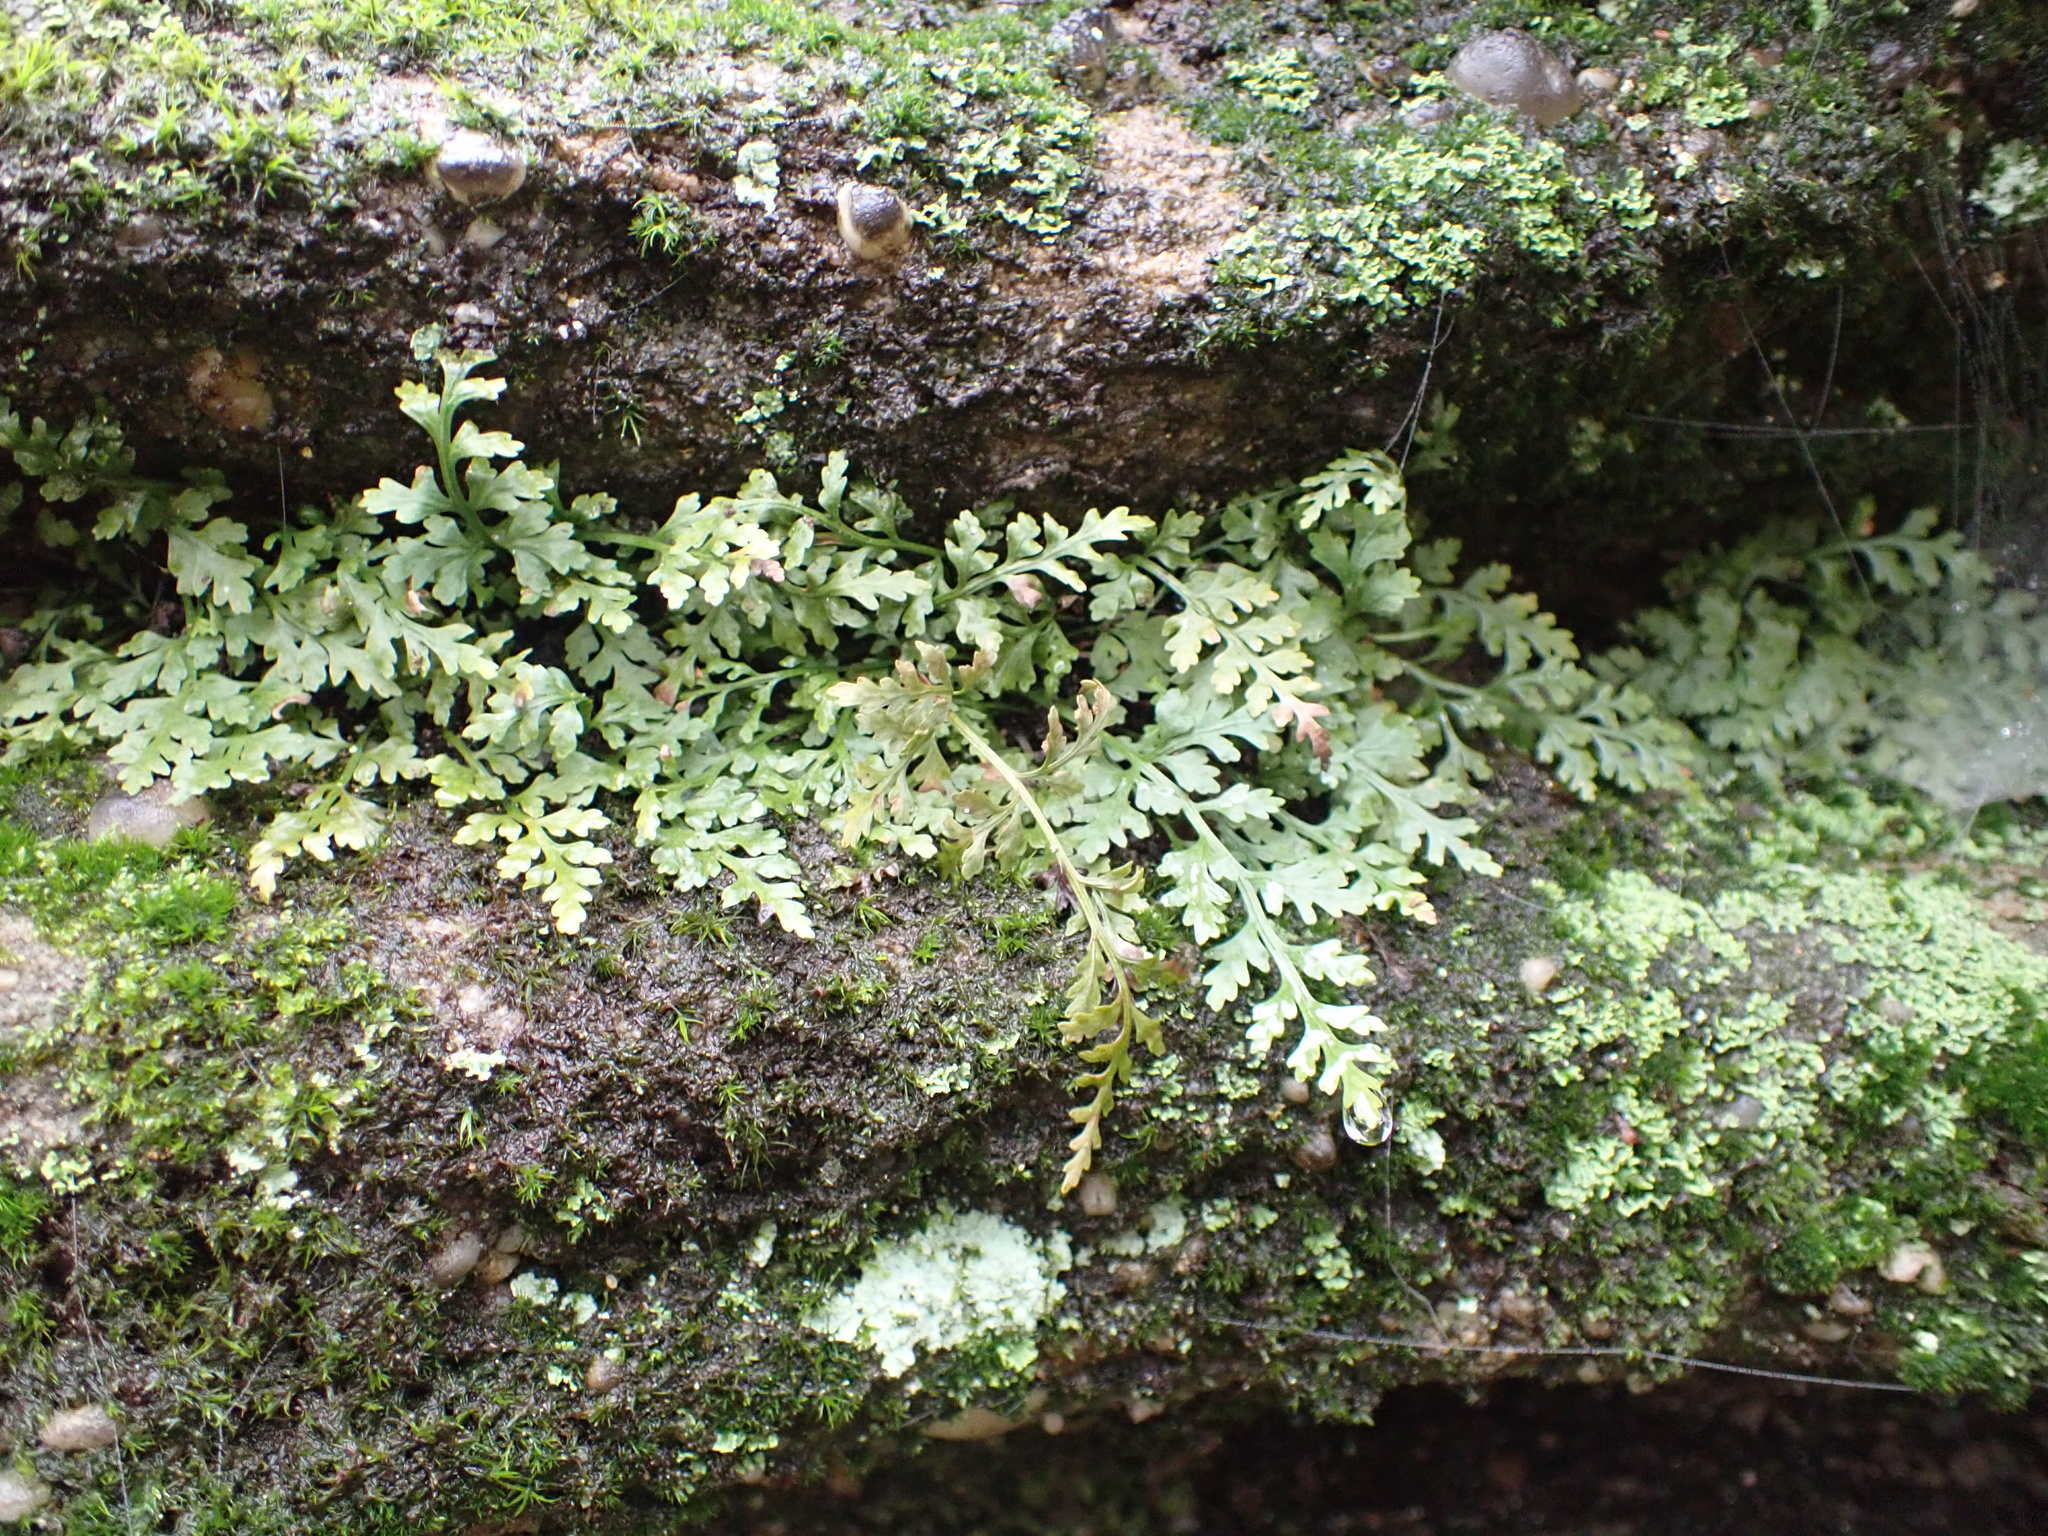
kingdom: Plantae
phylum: Tracheophyta
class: Polypodiopsida
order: Polypodiales
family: Aspleniaceae
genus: Asplenium
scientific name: Asplenium montanum
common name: Mountain spleenwort
